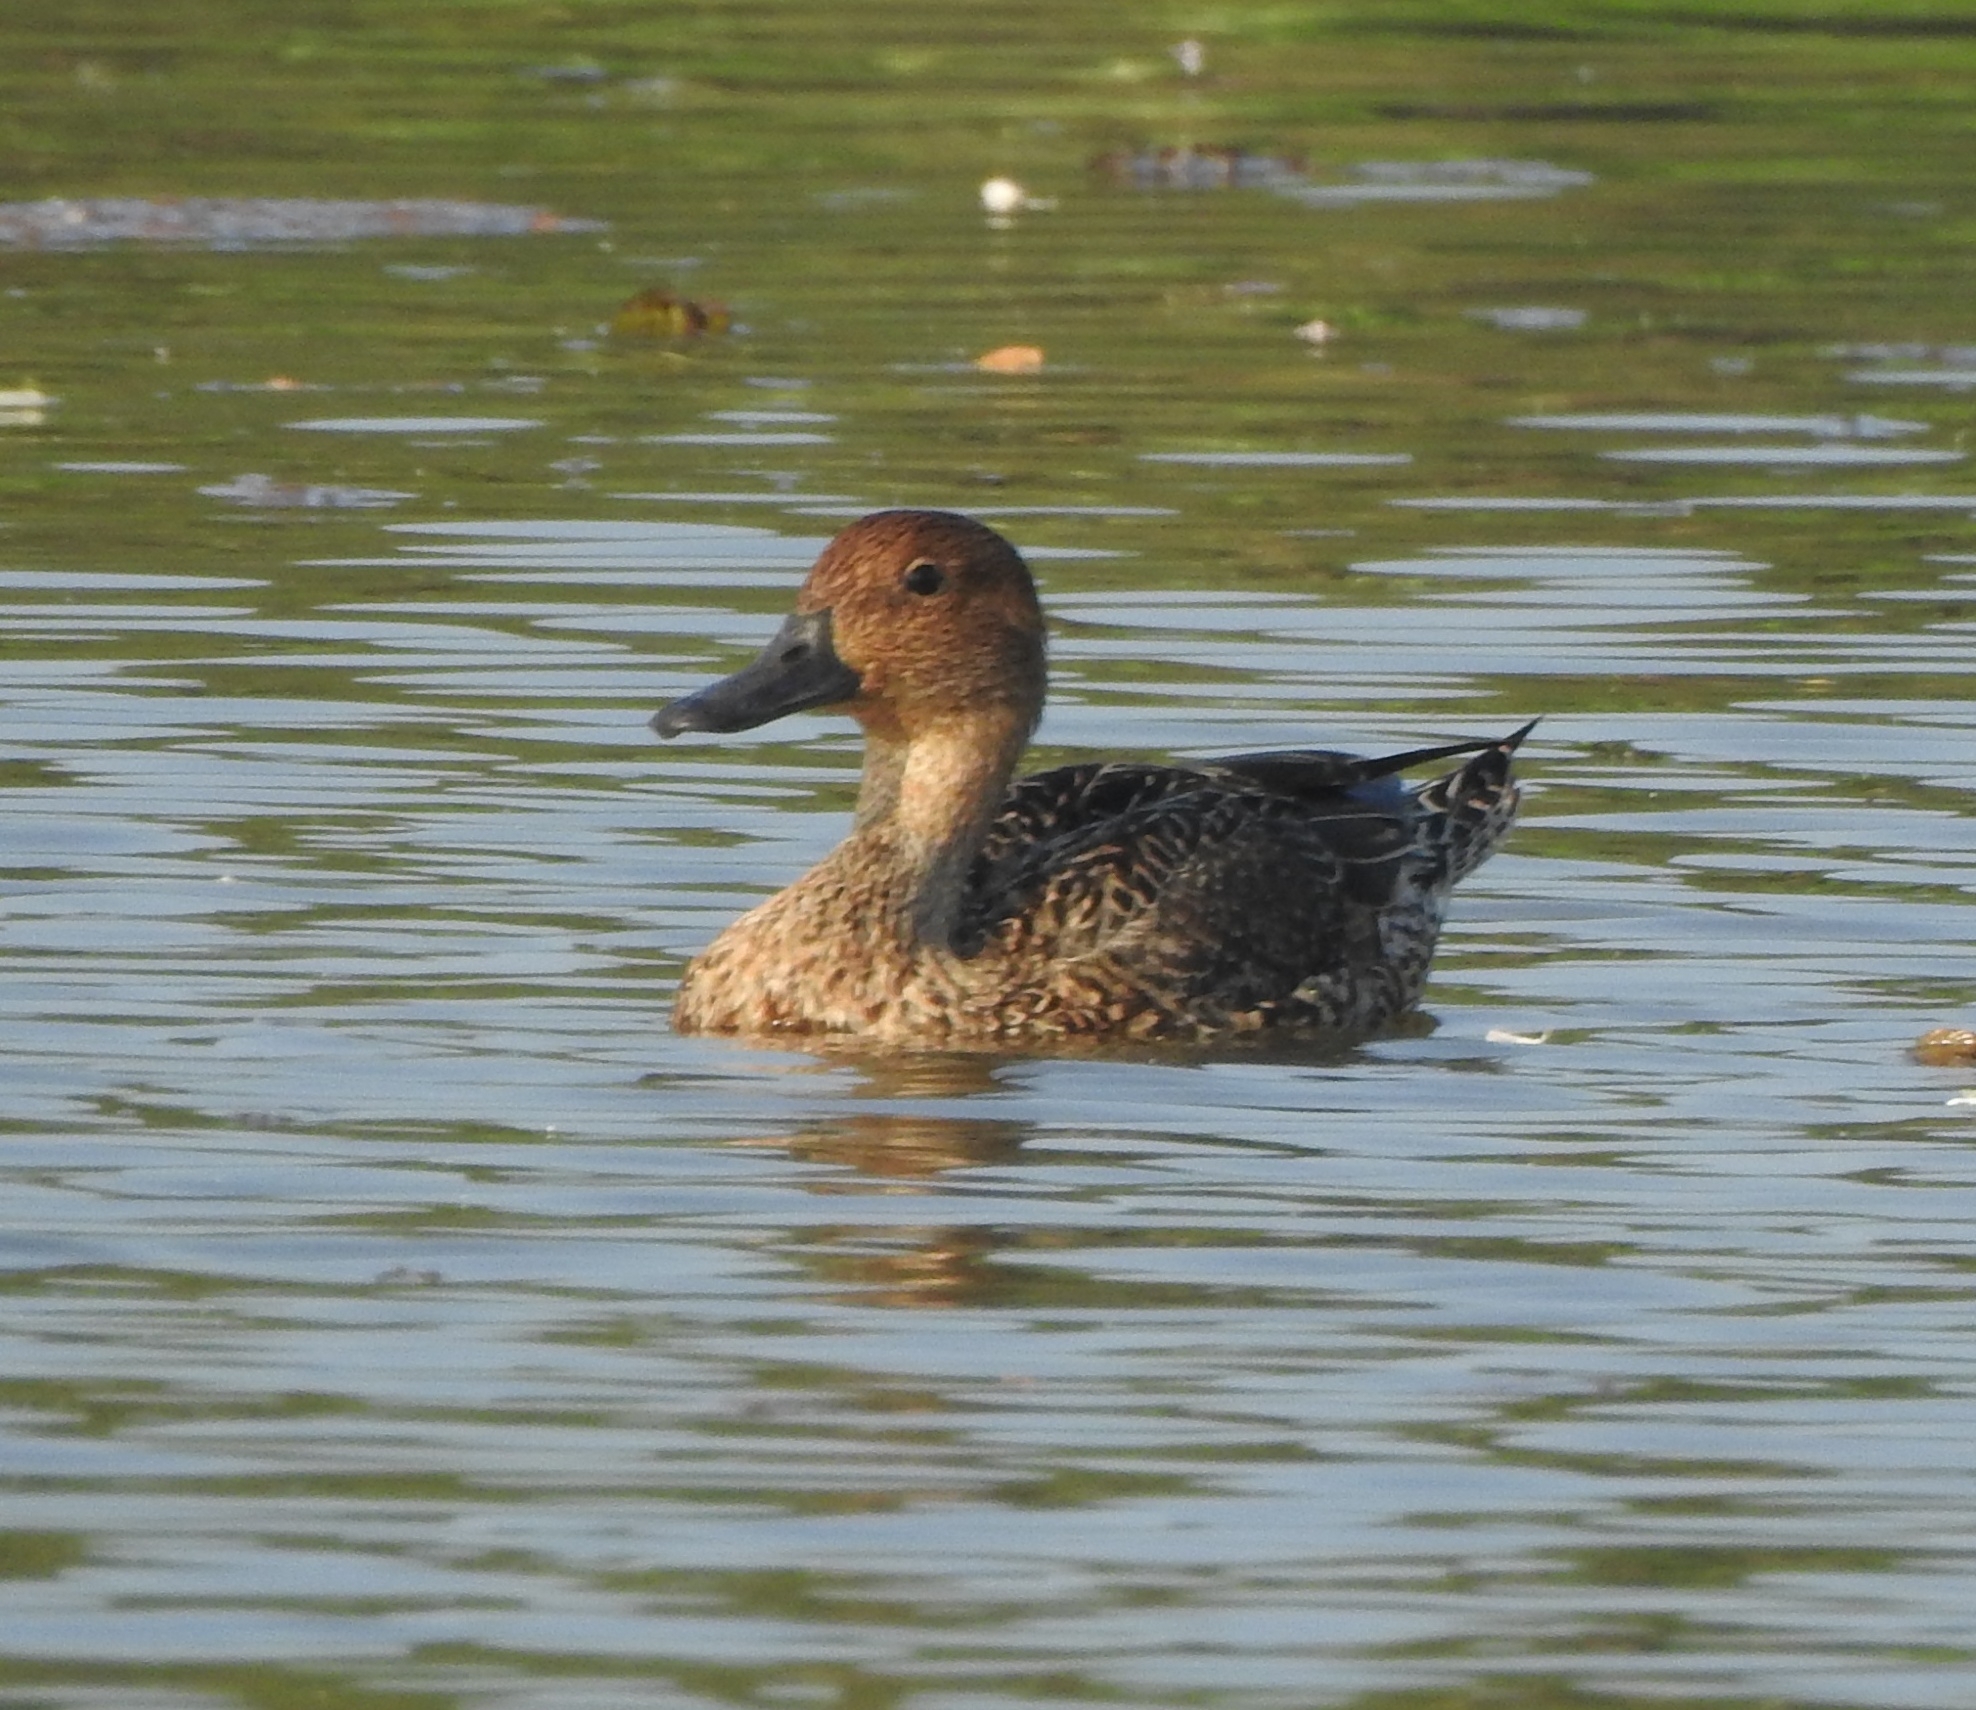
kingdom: Animalia
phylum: Chordata
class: Aves
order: Anseriformes
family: Anatidae
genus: Anas
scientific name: Anas acuta
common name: Northern pintail
